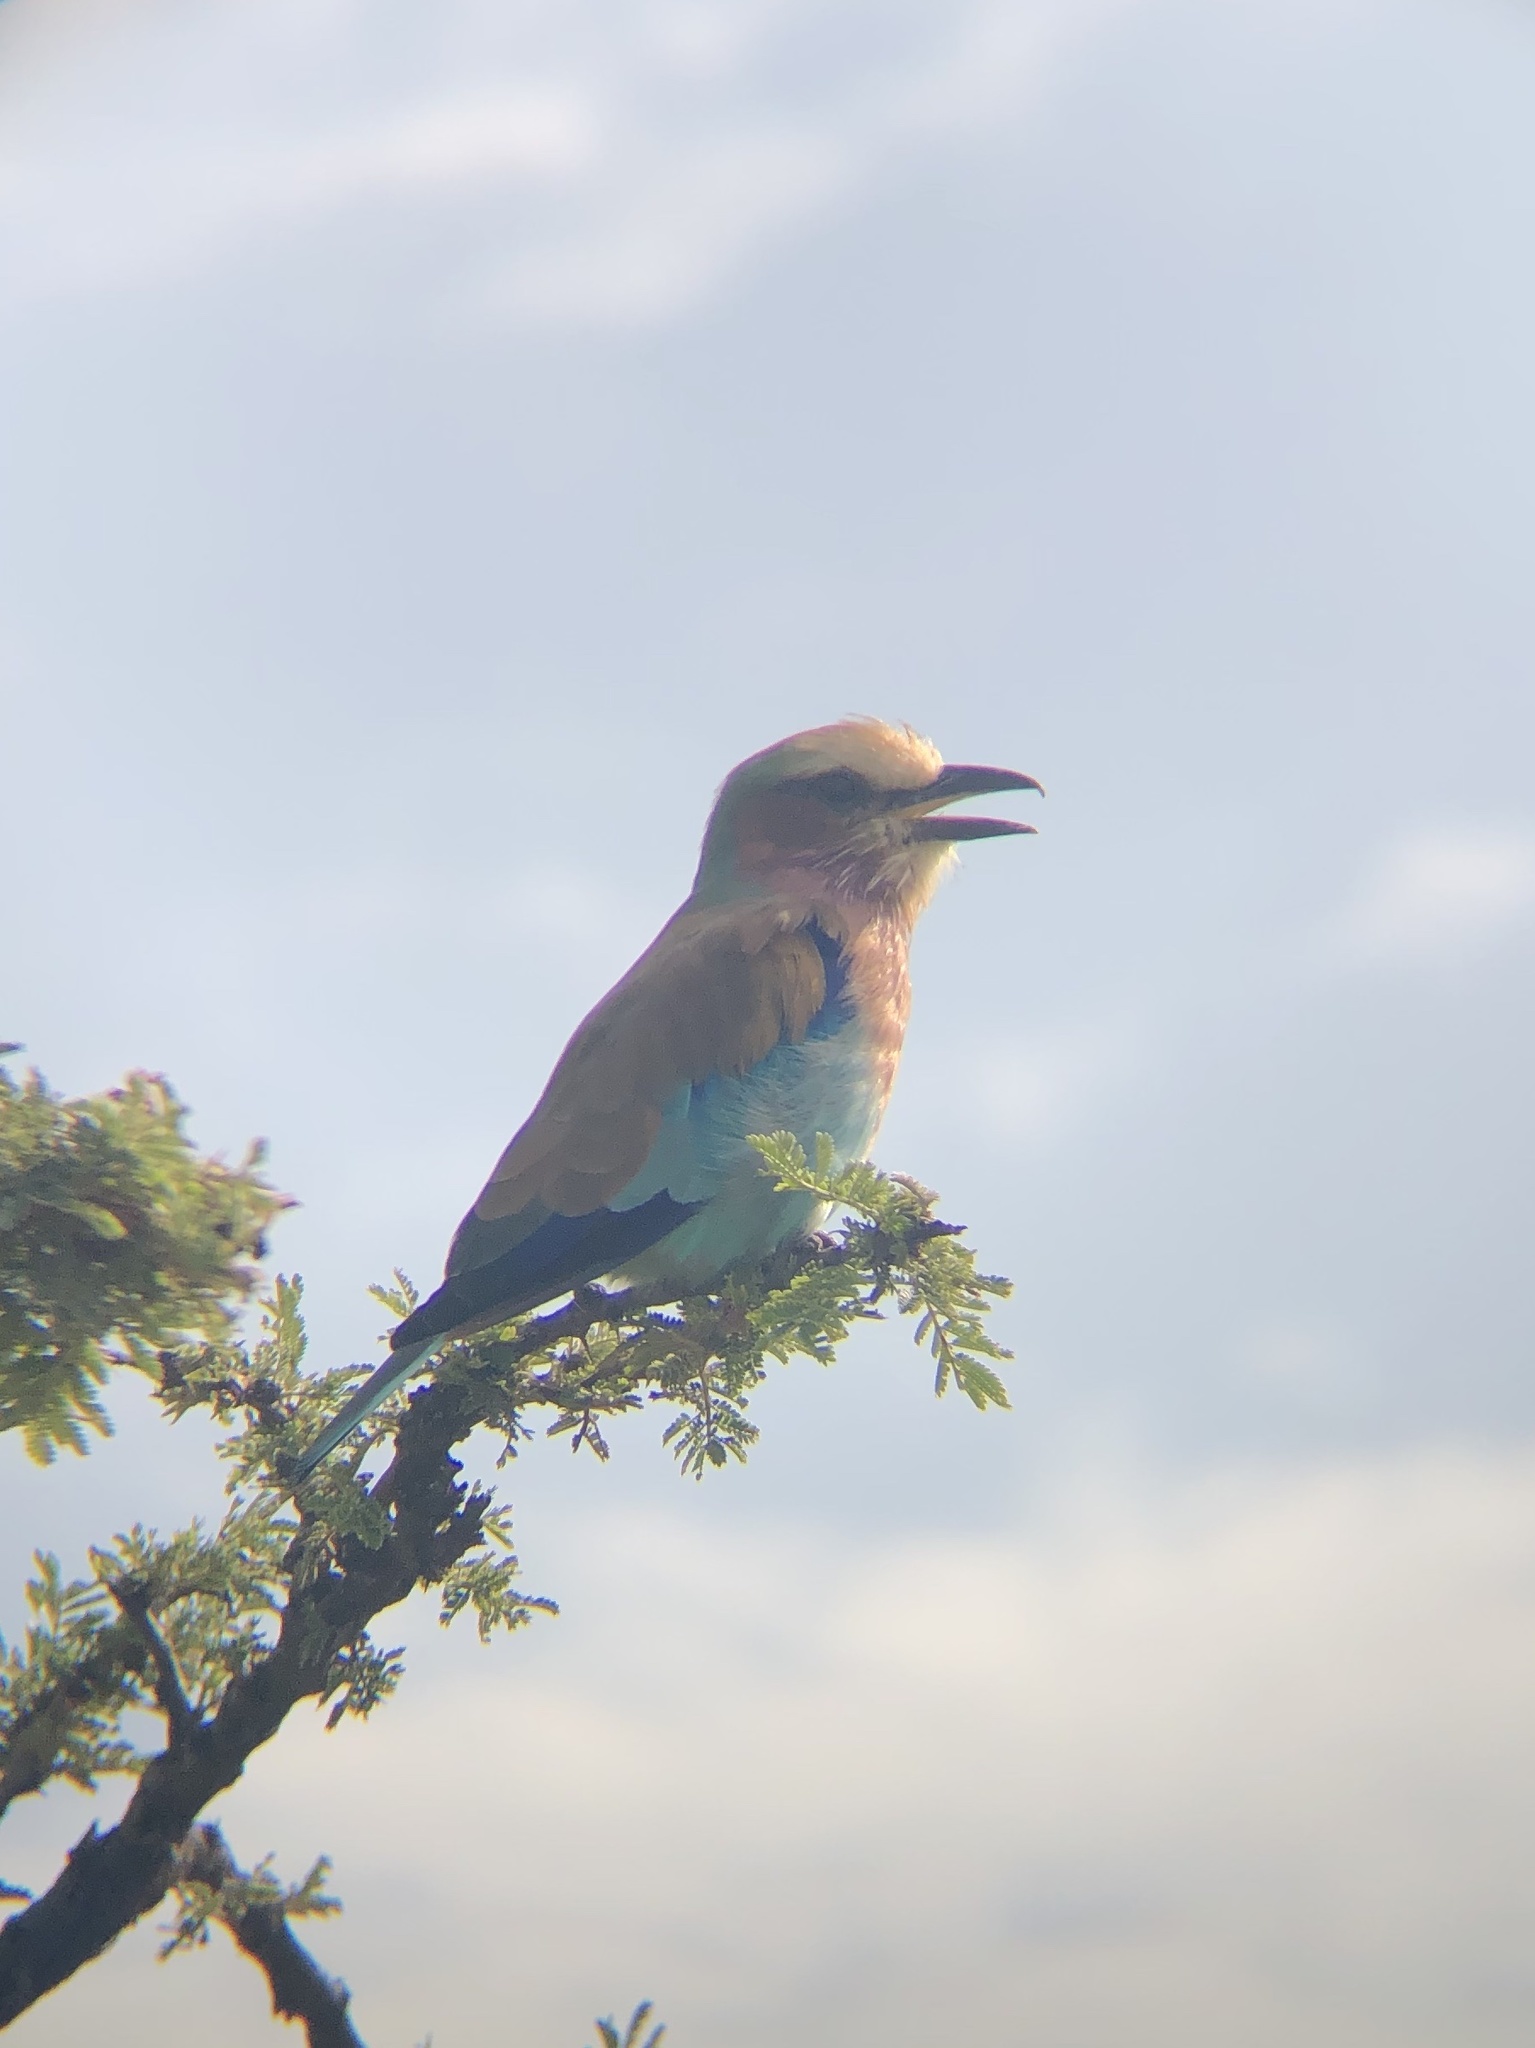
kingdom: Animalia
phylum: Chordata
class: Aves
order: Coraciiformes
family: Coraciidae
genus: Coracias
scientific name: Coracias caudatus
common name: Lilac-breasted roller
